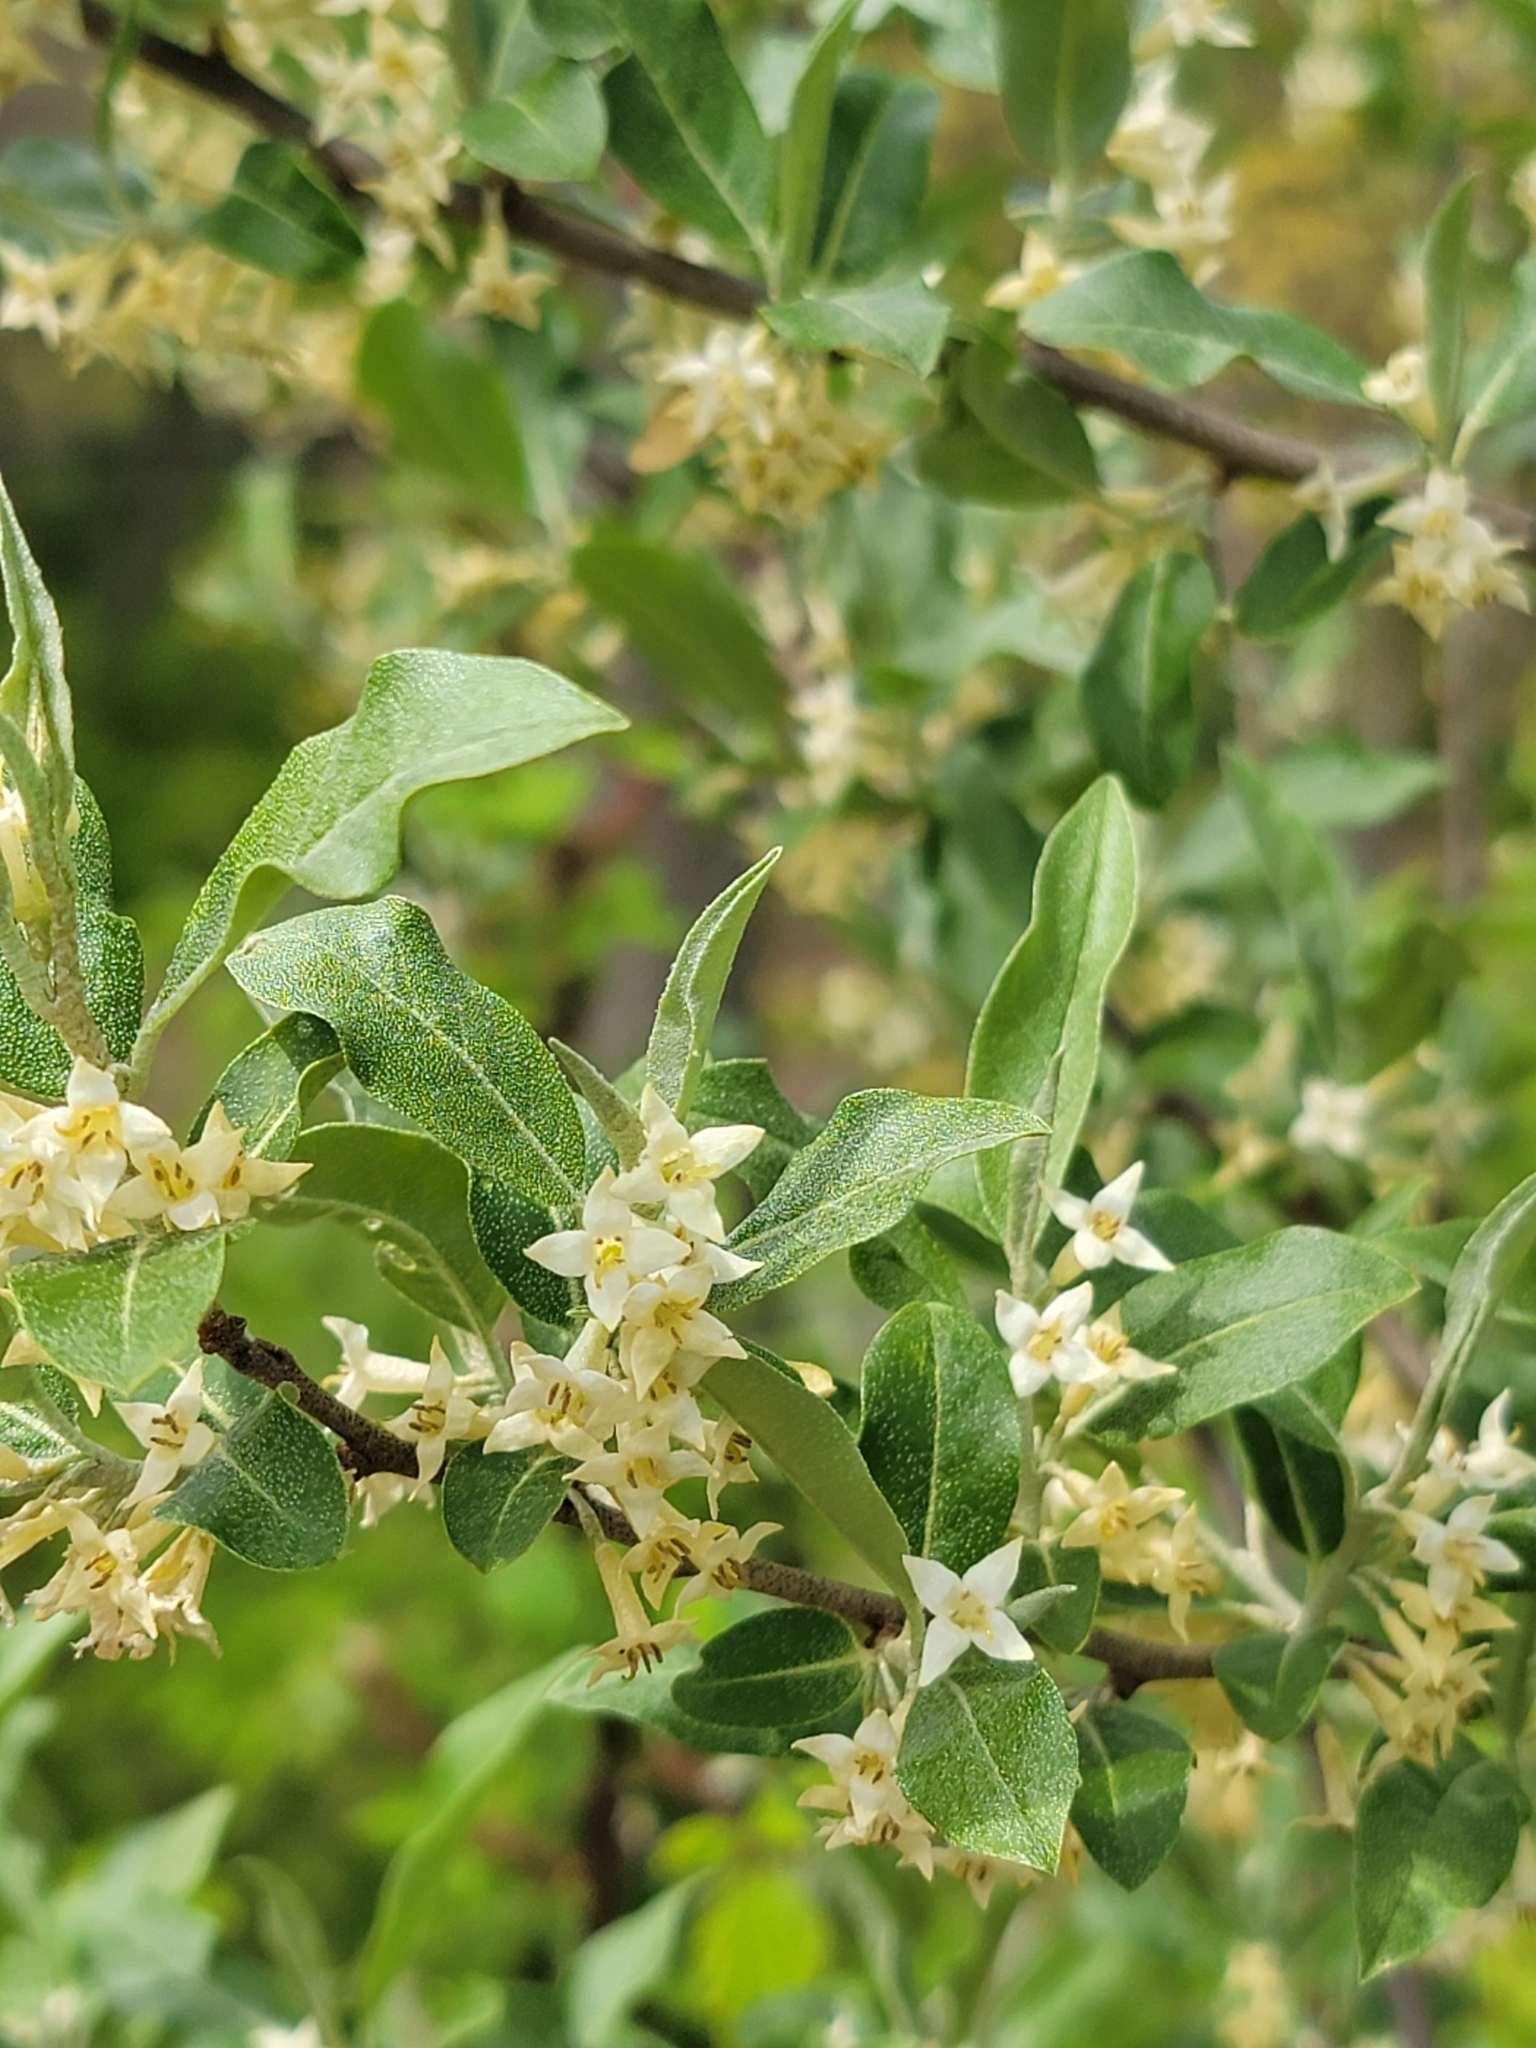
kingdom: Plantae
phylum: Tracheophyta
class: Magnoliopsida
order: Rosales
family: Elaeagnaceae
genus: Elaeagnus
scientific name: Elaeagnus umbellata
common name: Autumn olive
